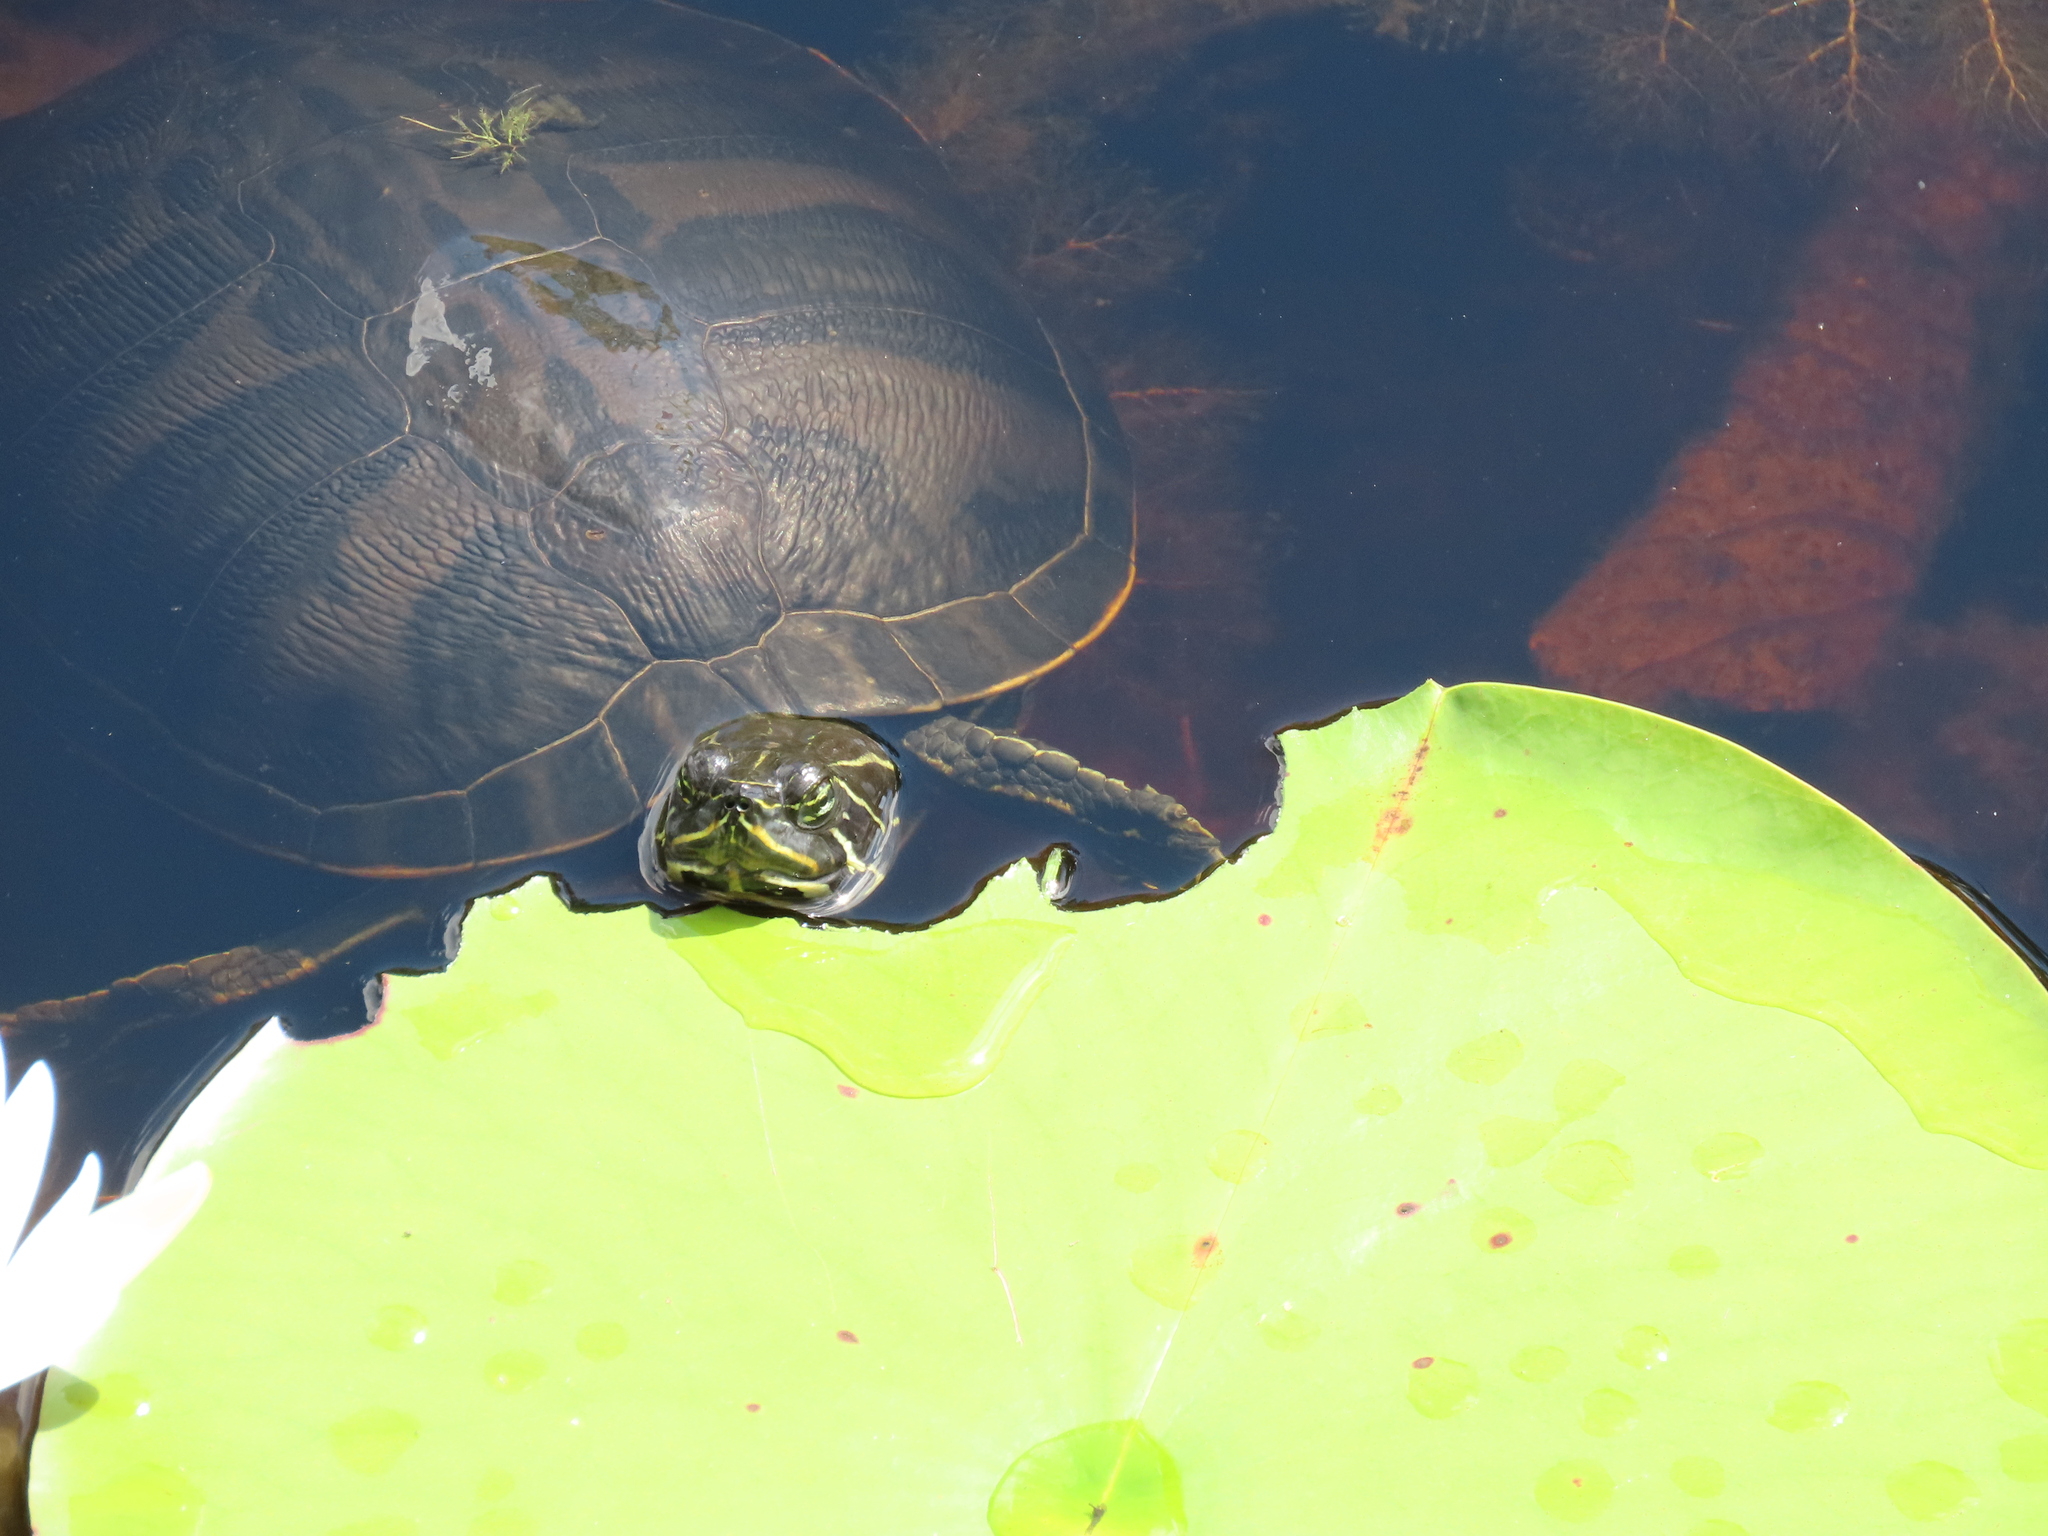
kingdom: Animalia
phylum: Chordata
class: Testudines
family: Emydidae
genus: Pseudemys
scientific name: Pseudemys nelsoni
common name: Florida red-bellied turtle
